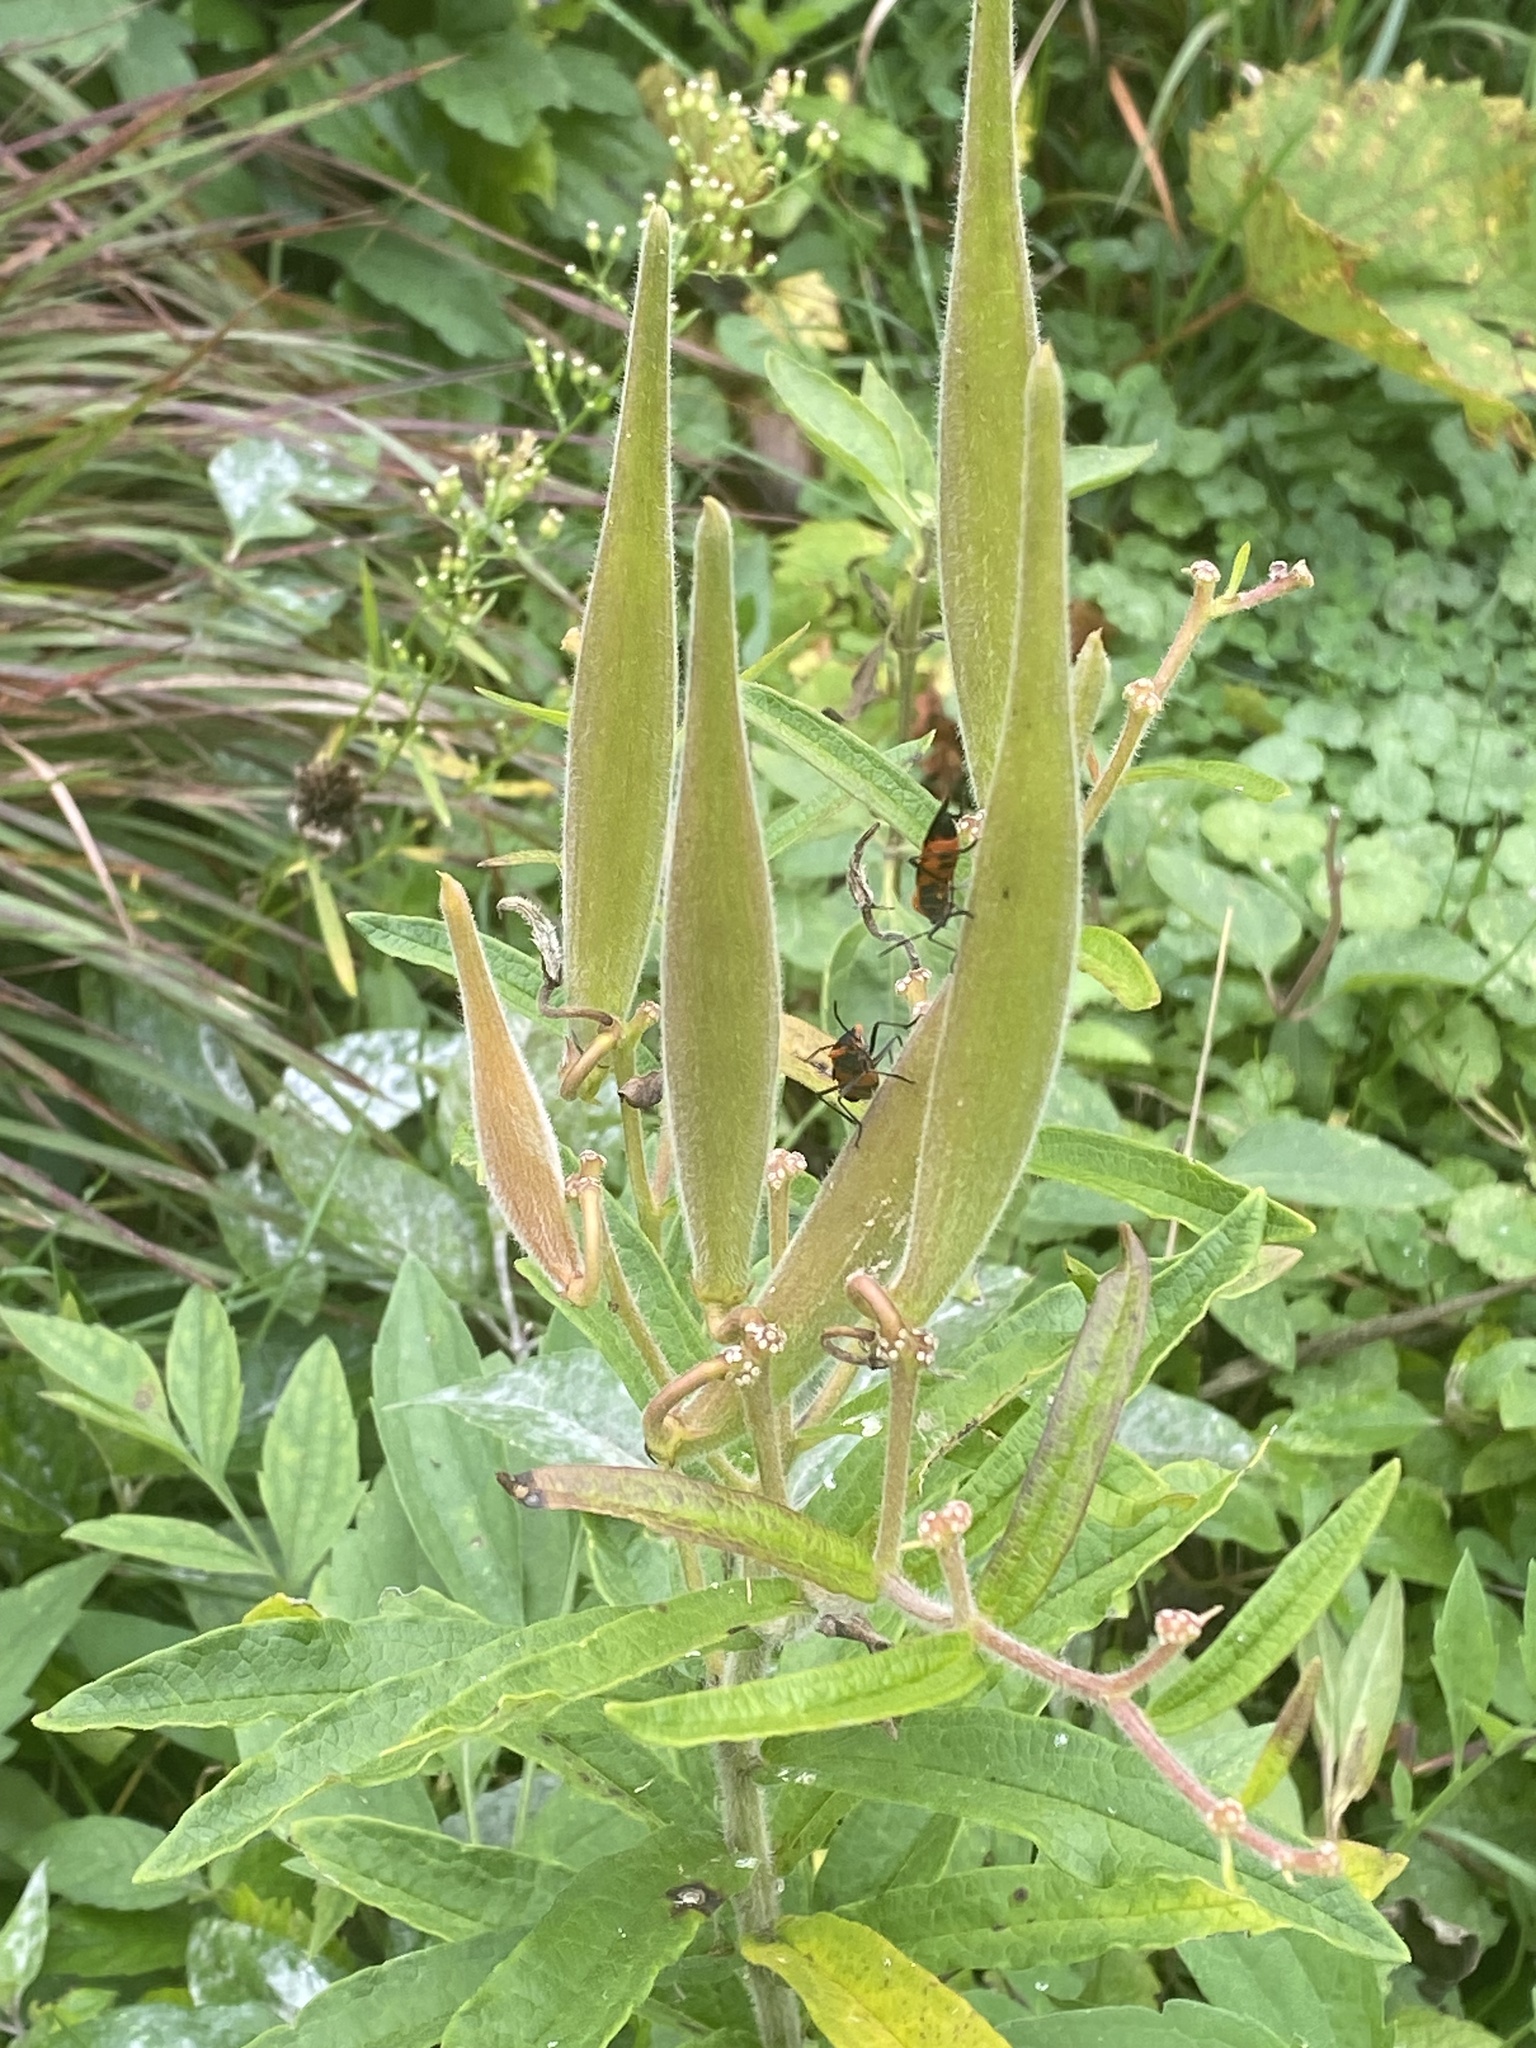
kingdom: Plantae
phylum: Tracheophyta
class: Magnoliopsida
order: Gentianales
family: Apocynaceae
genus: Asclepias
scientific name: Asclepias tuberosa
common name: Butterfly milkweed
